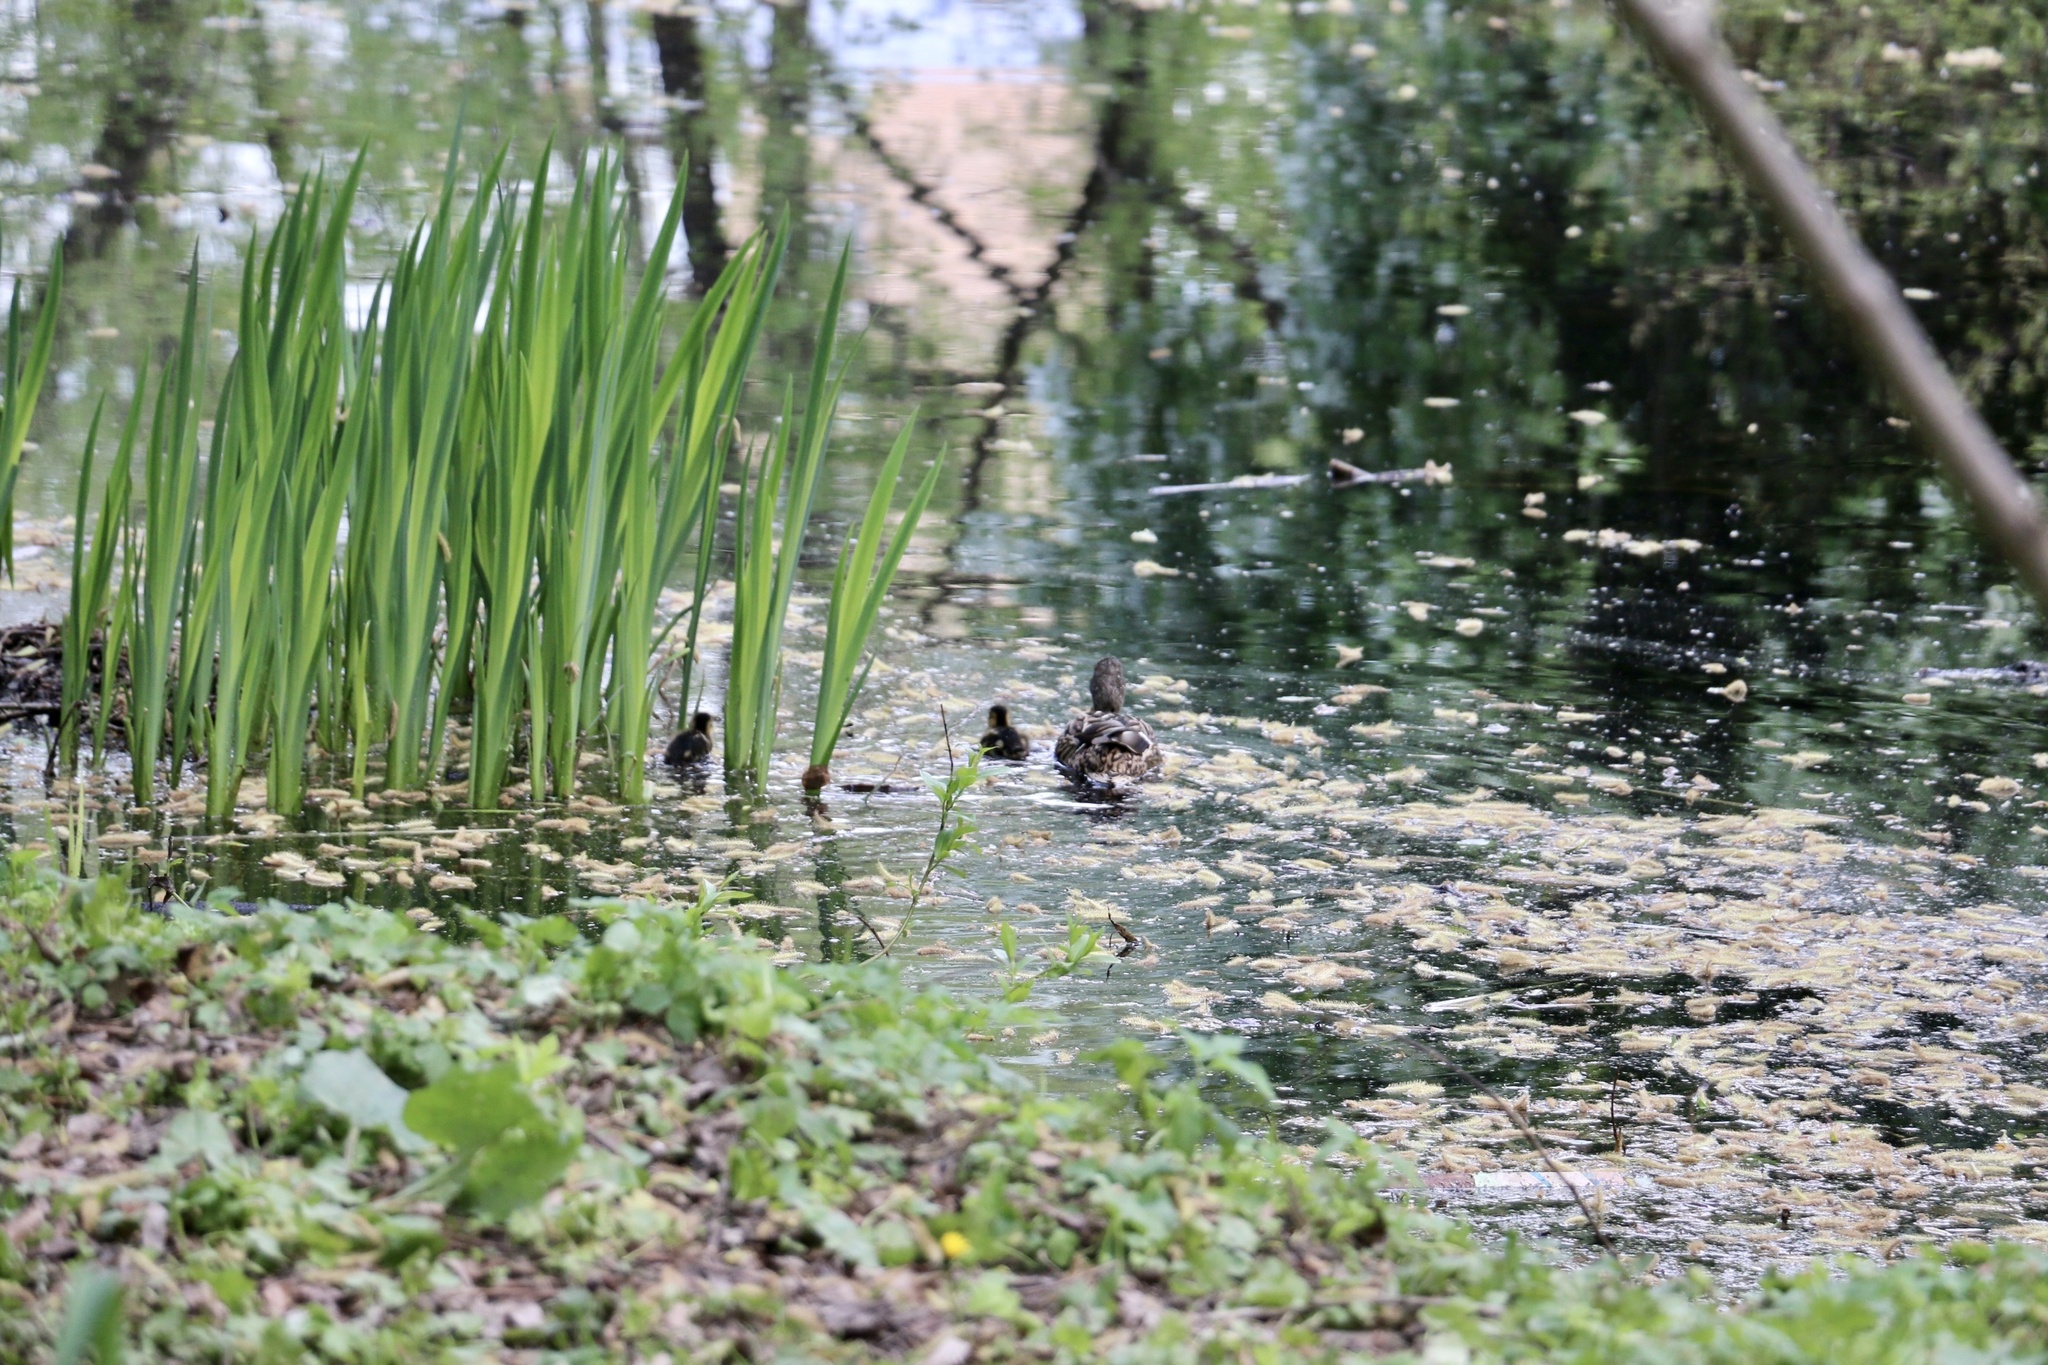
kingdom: Animalia
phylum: Chordata
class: Aves
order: Anseriformes
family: Anatidae
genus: Anas
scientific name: Anas platyrhynchos
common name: Mallard
